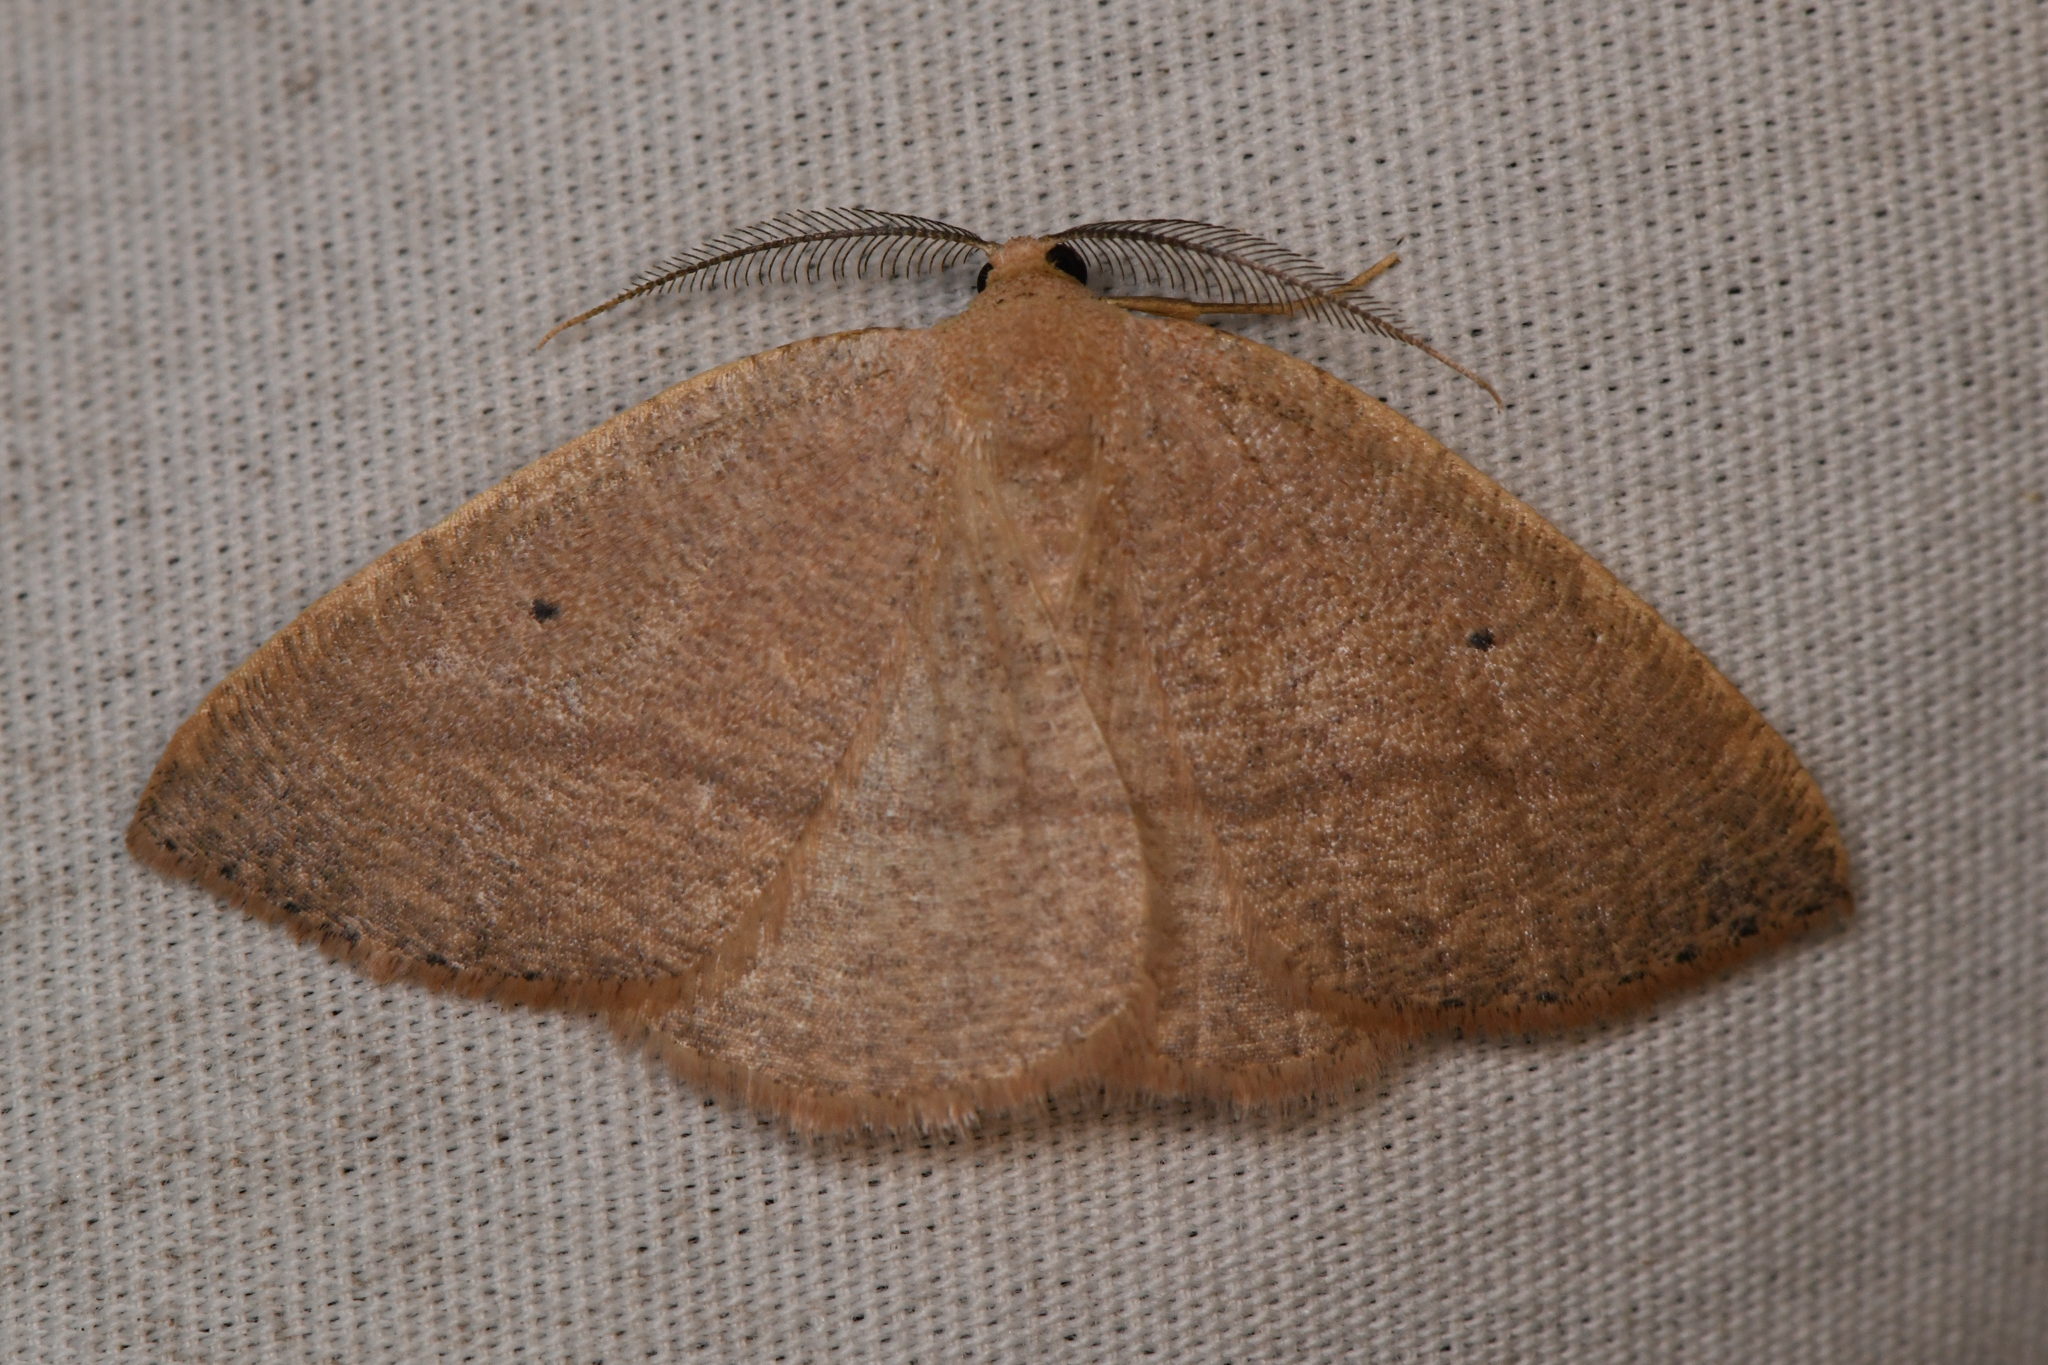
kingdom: Animalia
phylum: Arthropoda
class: Insecta
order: Lepidoptera
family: Geometridae
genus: Eudrepanulatrix
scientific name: Eudrepanulatrix rectifascia
